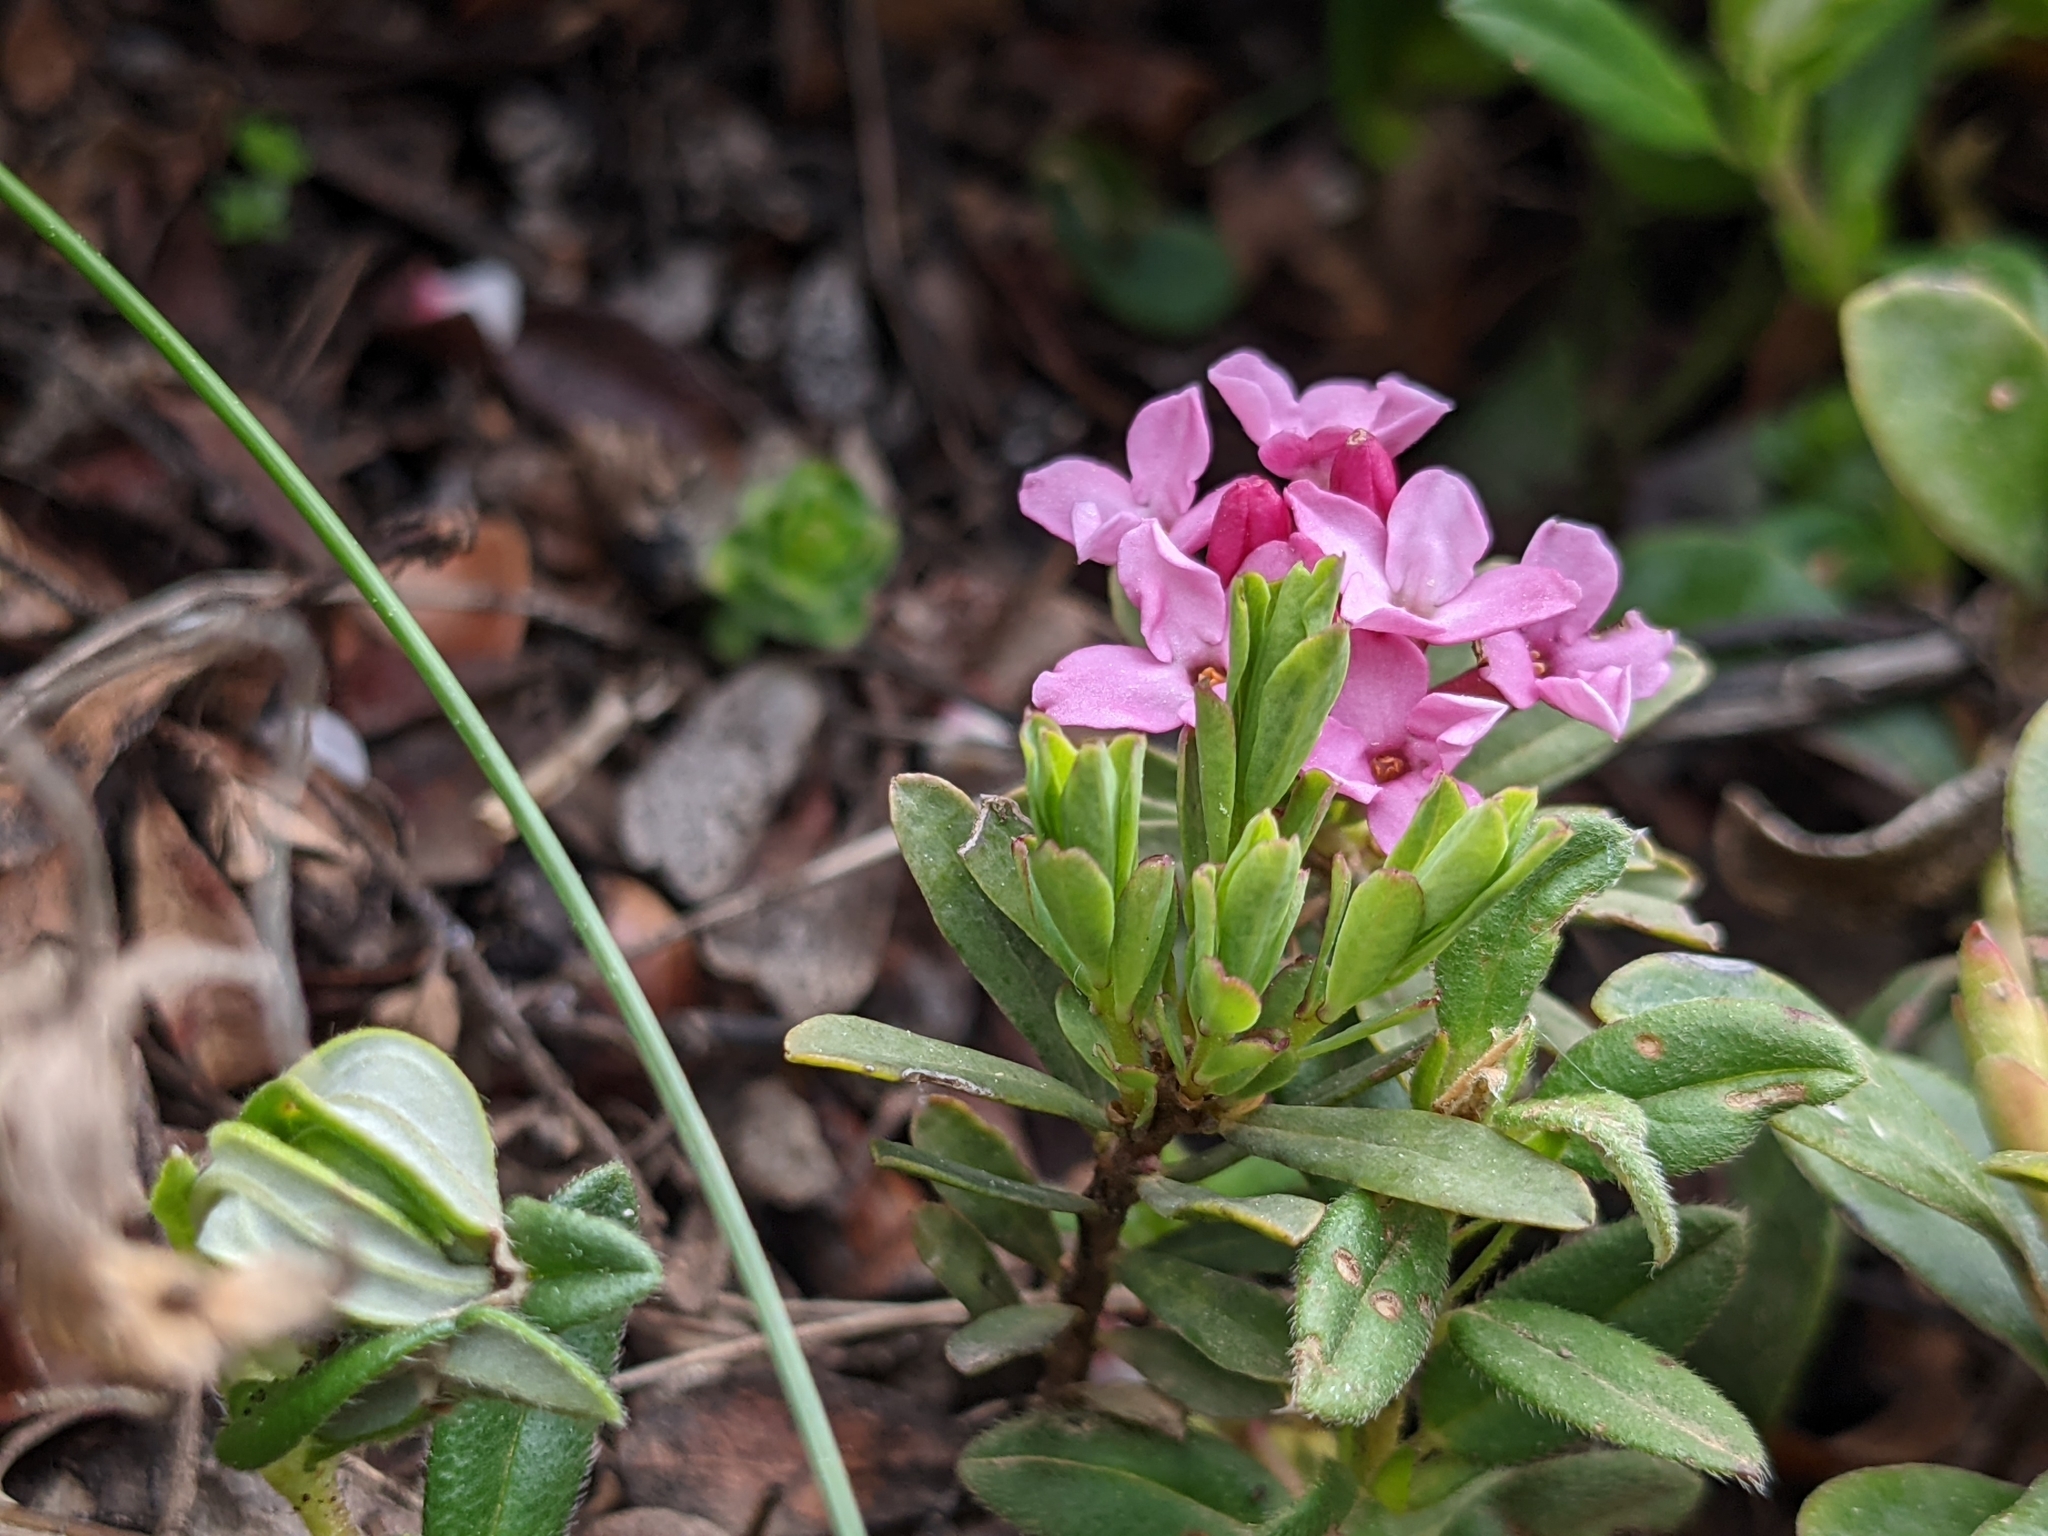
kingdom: Plantae
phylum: Tracheophyta
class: Magnoliopsida
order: Malvales
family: Thymelaeaceae
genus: Daphne
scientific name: Daphne cneorum
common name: Garland-flower
